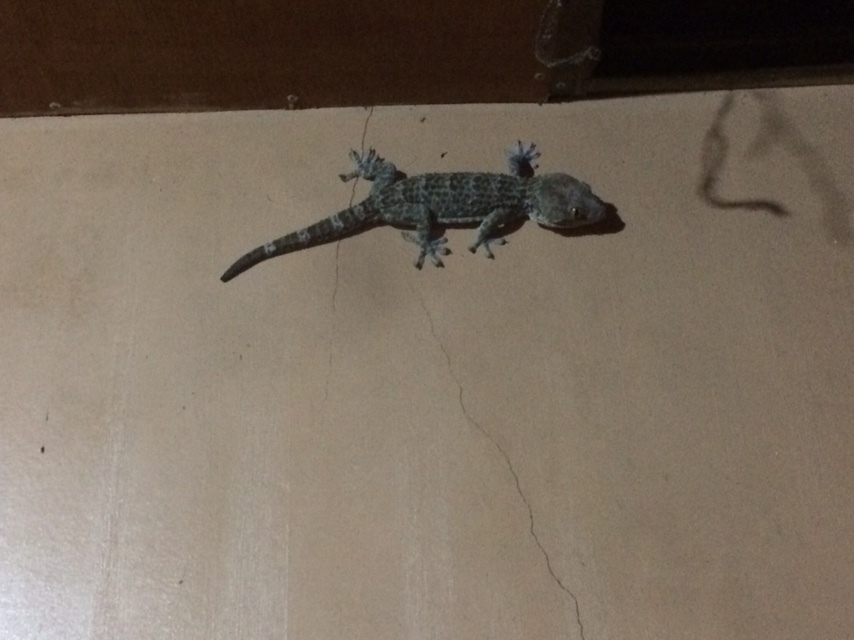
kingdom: Animalia
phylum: Chordata
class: Squamata
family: Gekkonidae
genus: Gekko
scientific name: Gekko gecko
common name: Tokay gecko
